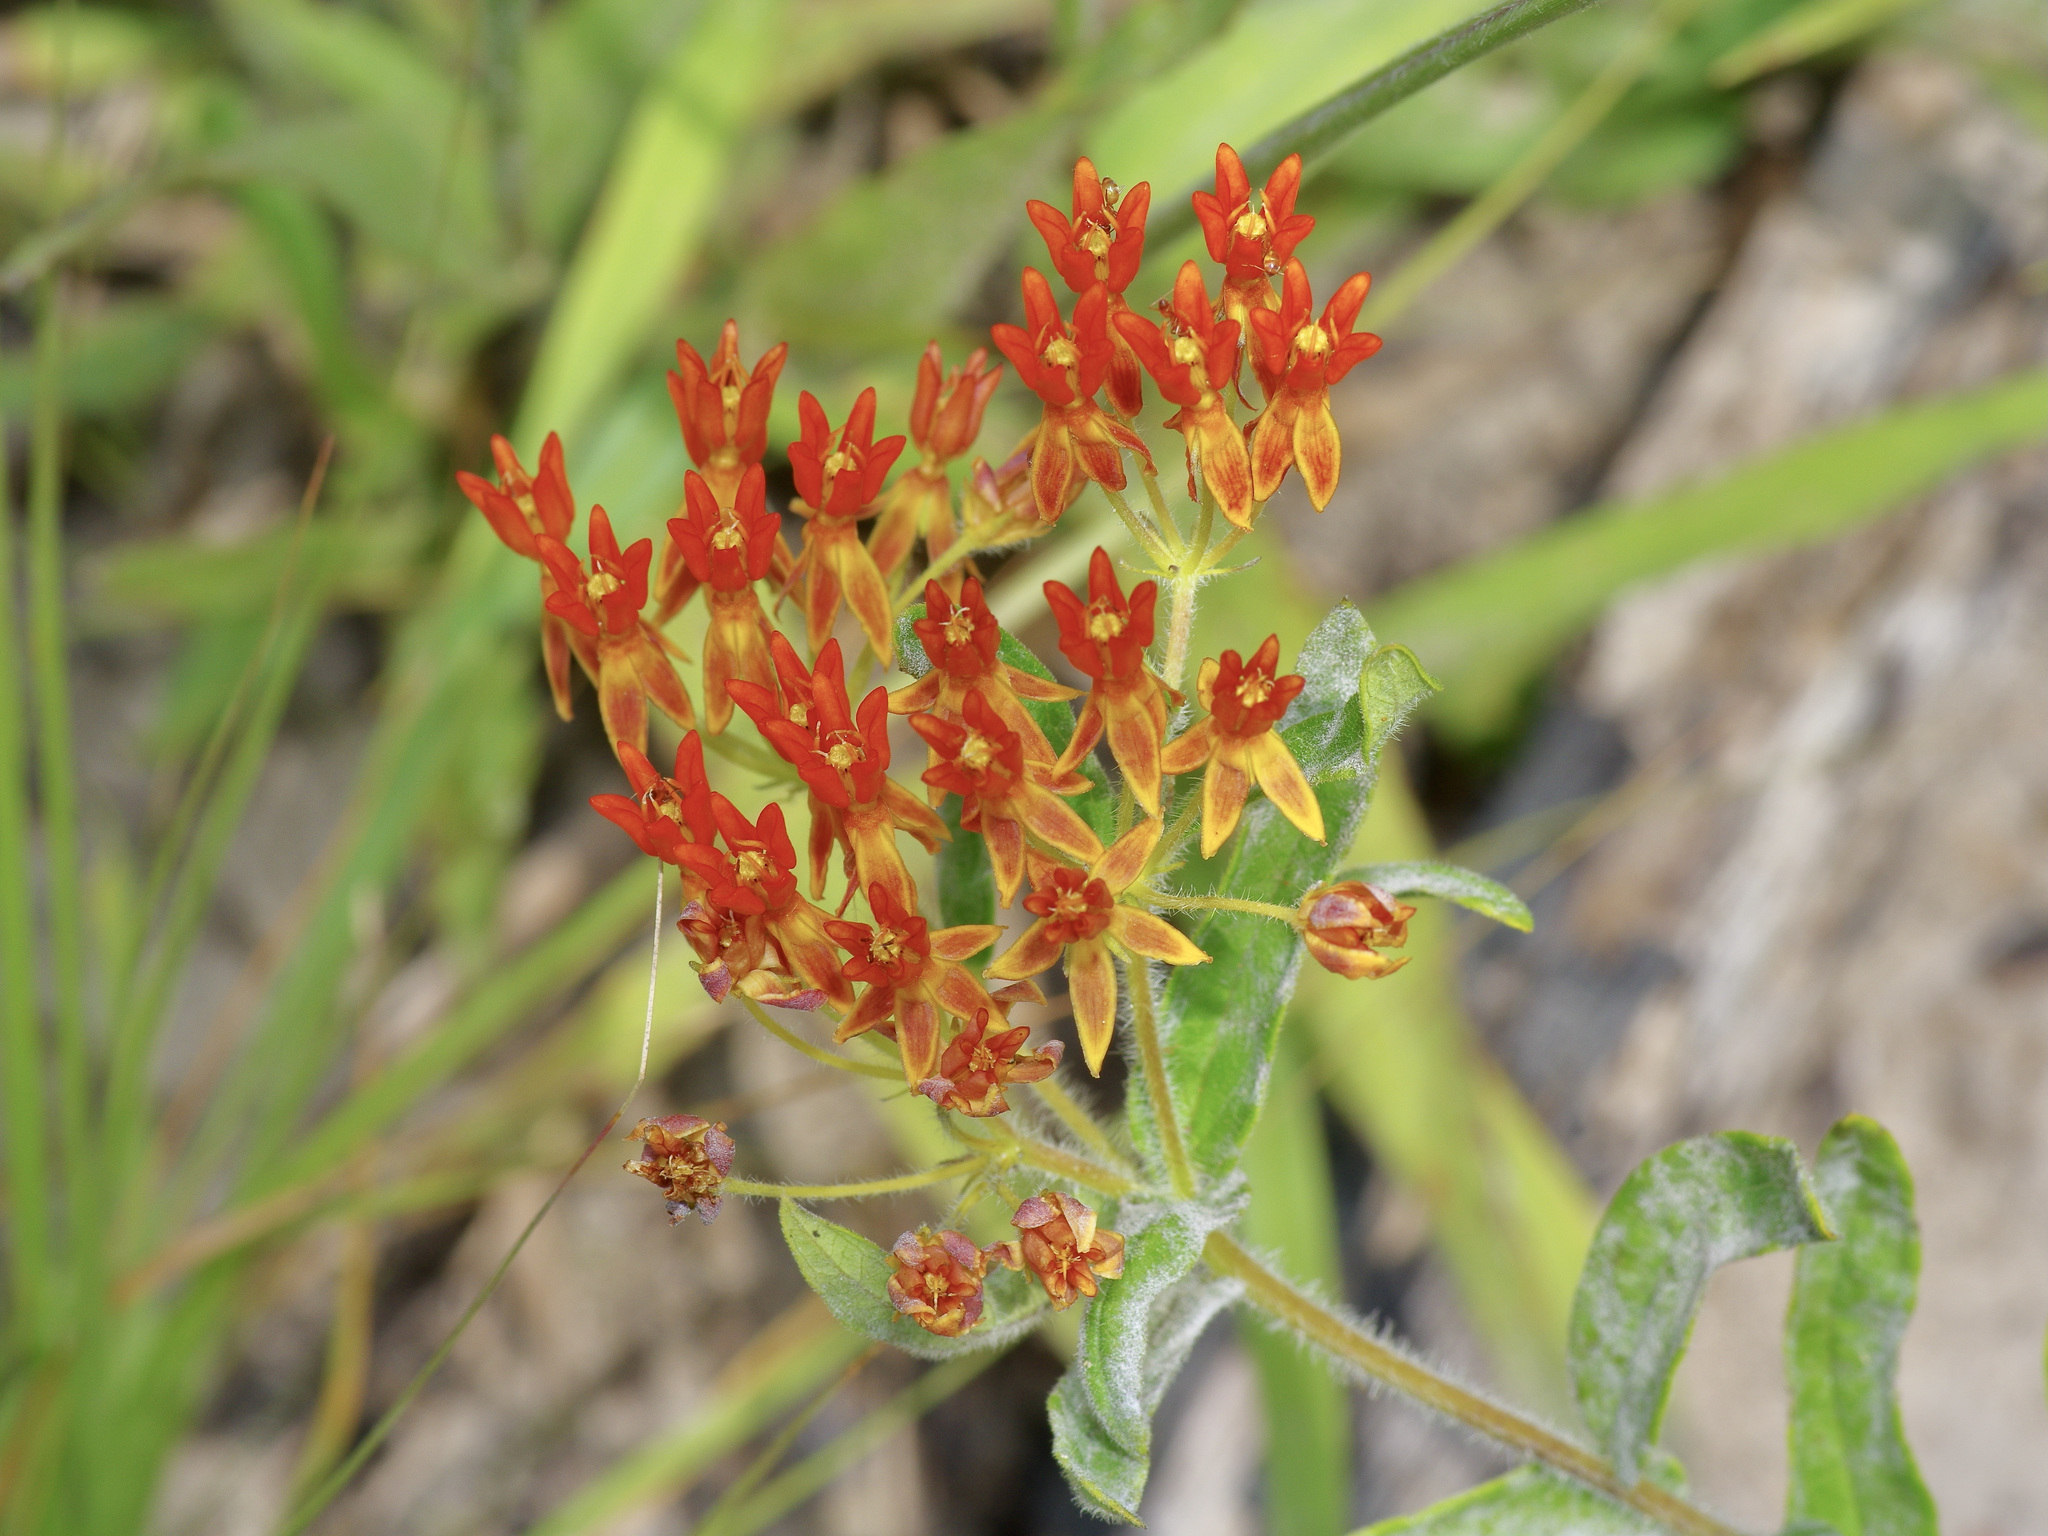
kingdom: Plantae
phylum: Tracheophyta
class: Magnoliopsida
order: Gentianales
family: Apocynaceae
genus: Asclepias
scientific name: Asclepias tuberosa
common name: Butterfly milkweed
